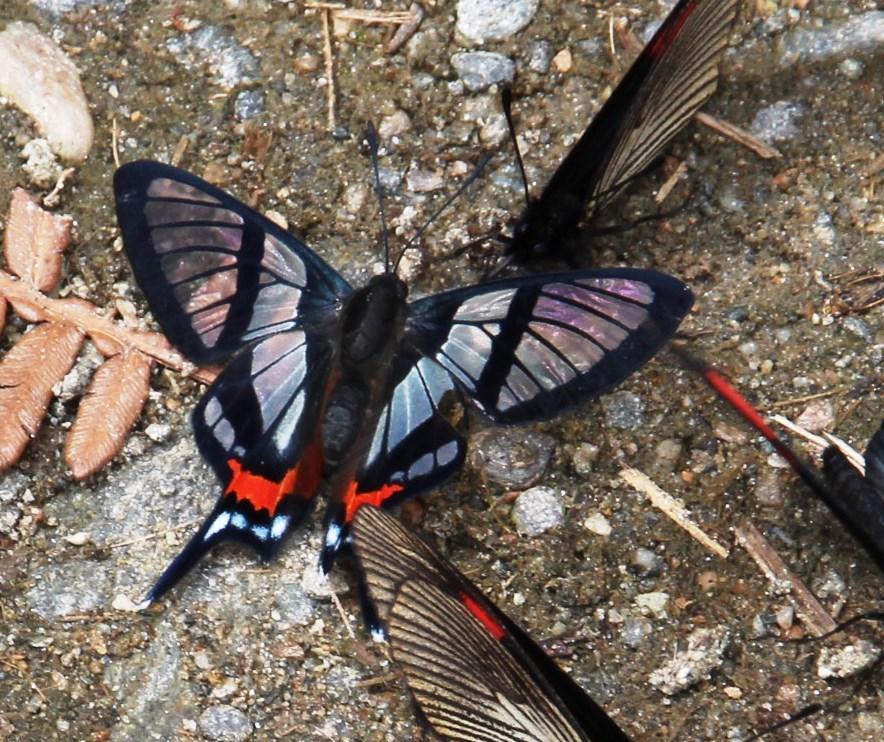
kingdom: Animalia
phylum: Arthropoda
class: Insecta
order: Lepidoptera
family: Riodinidae
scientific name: Riodinidae
